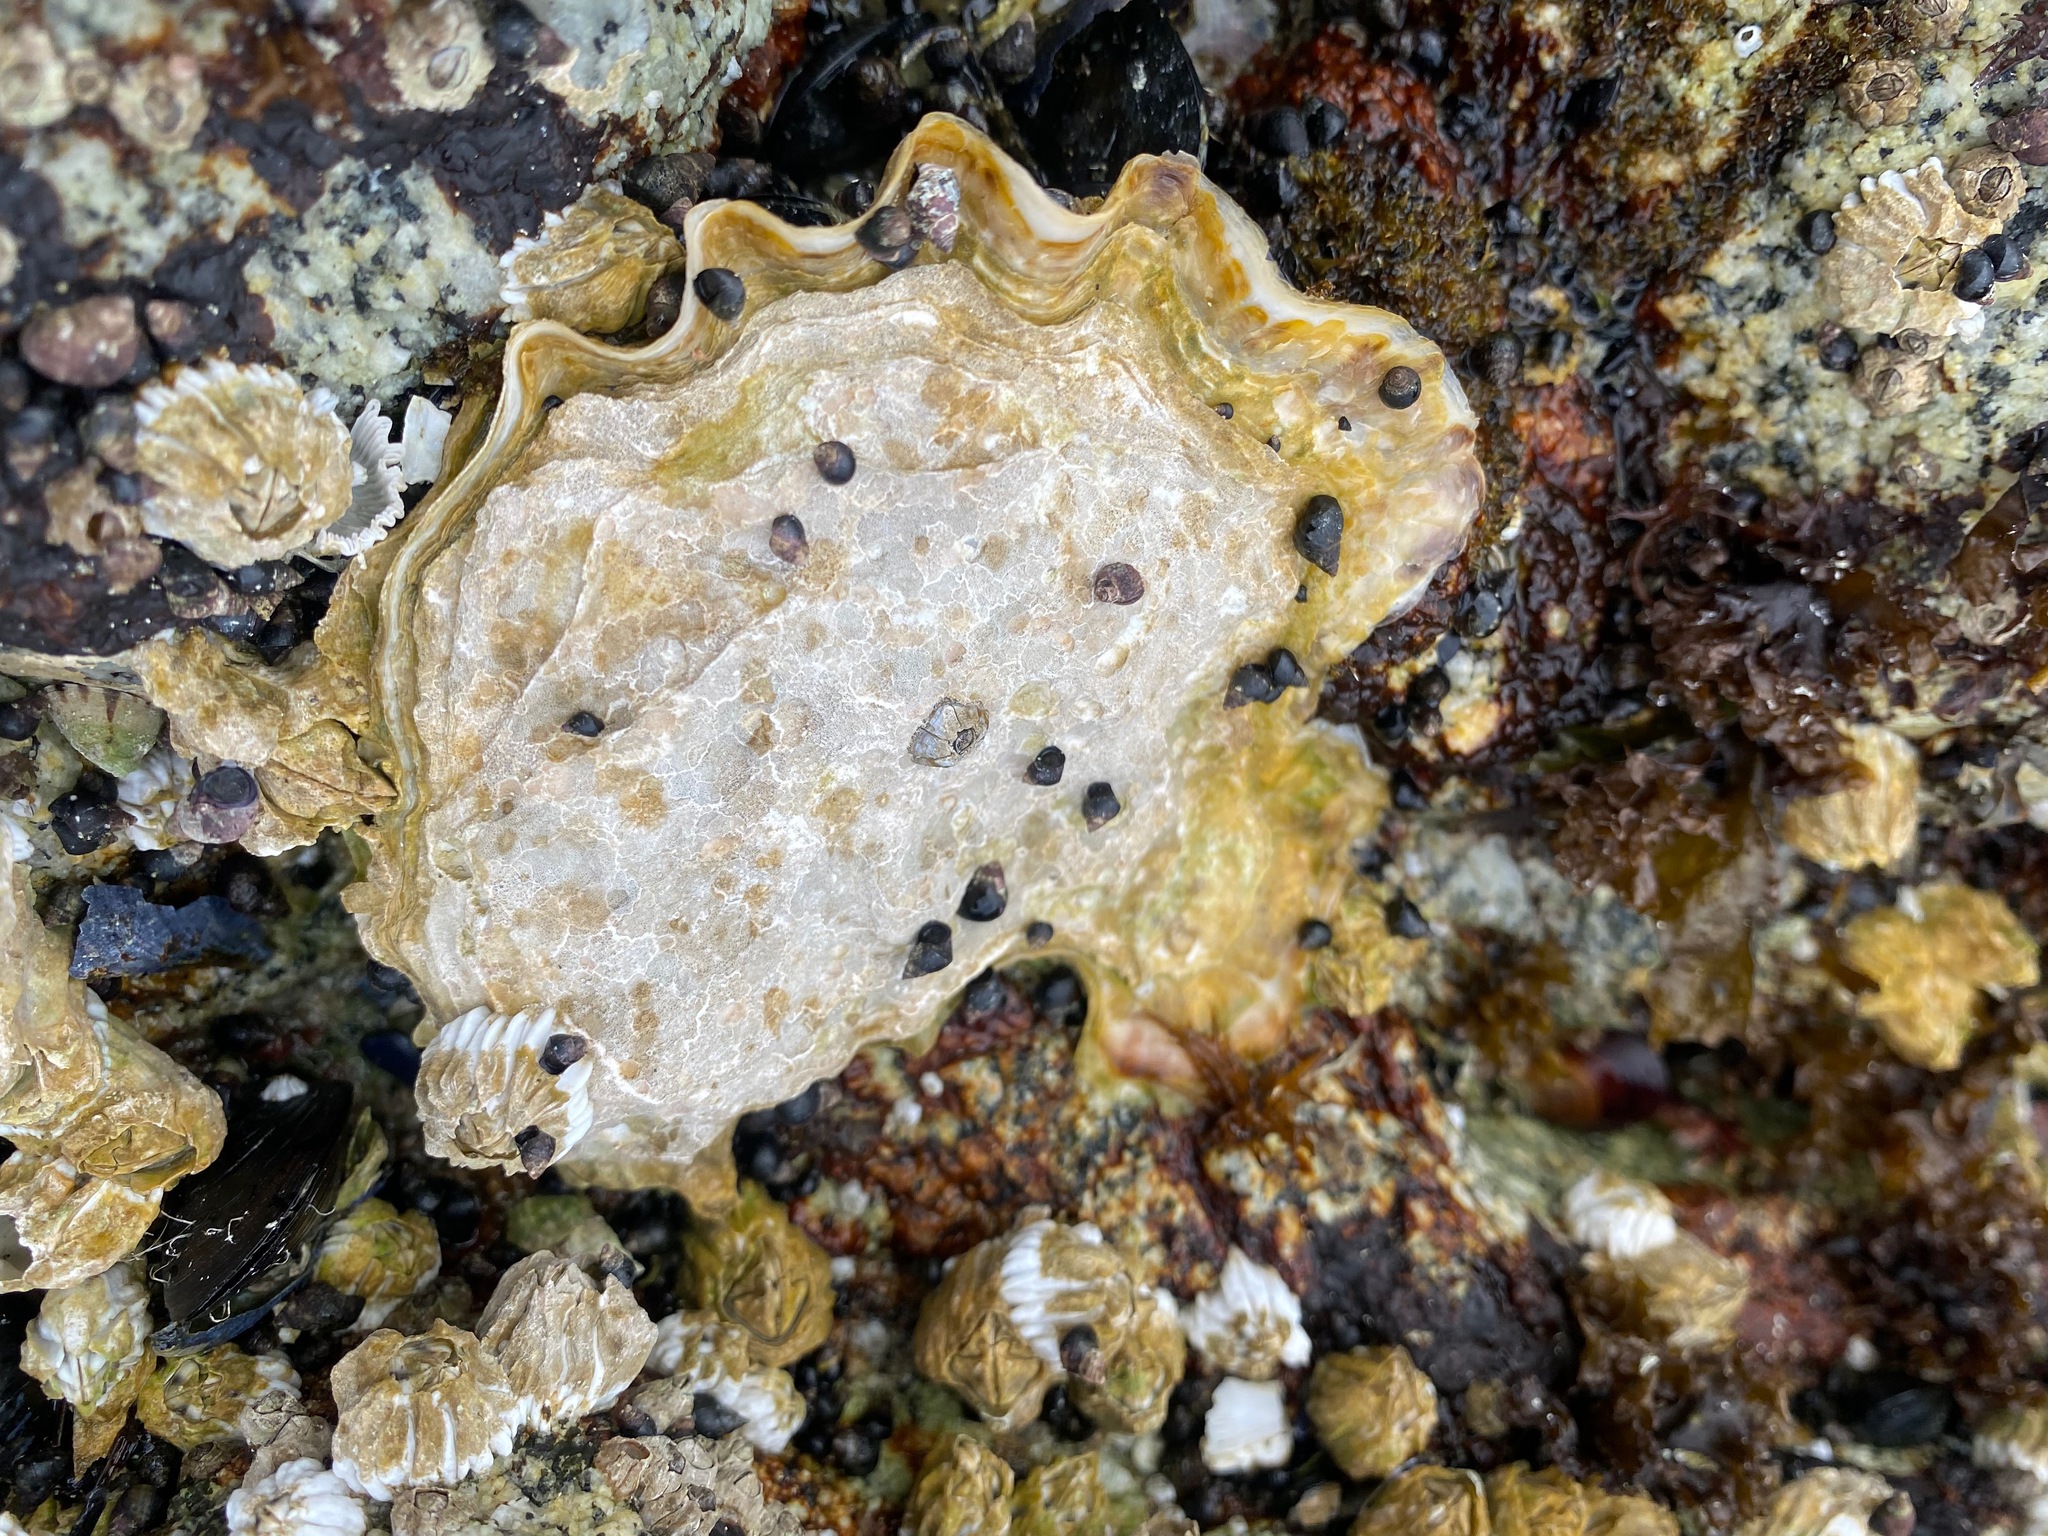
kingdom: Animalia
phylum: Mollusca
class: Bivalvia
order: Ostreida
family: Ostreidae
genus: Magallana
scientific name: Magallana gigas
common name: Pacific oyster
